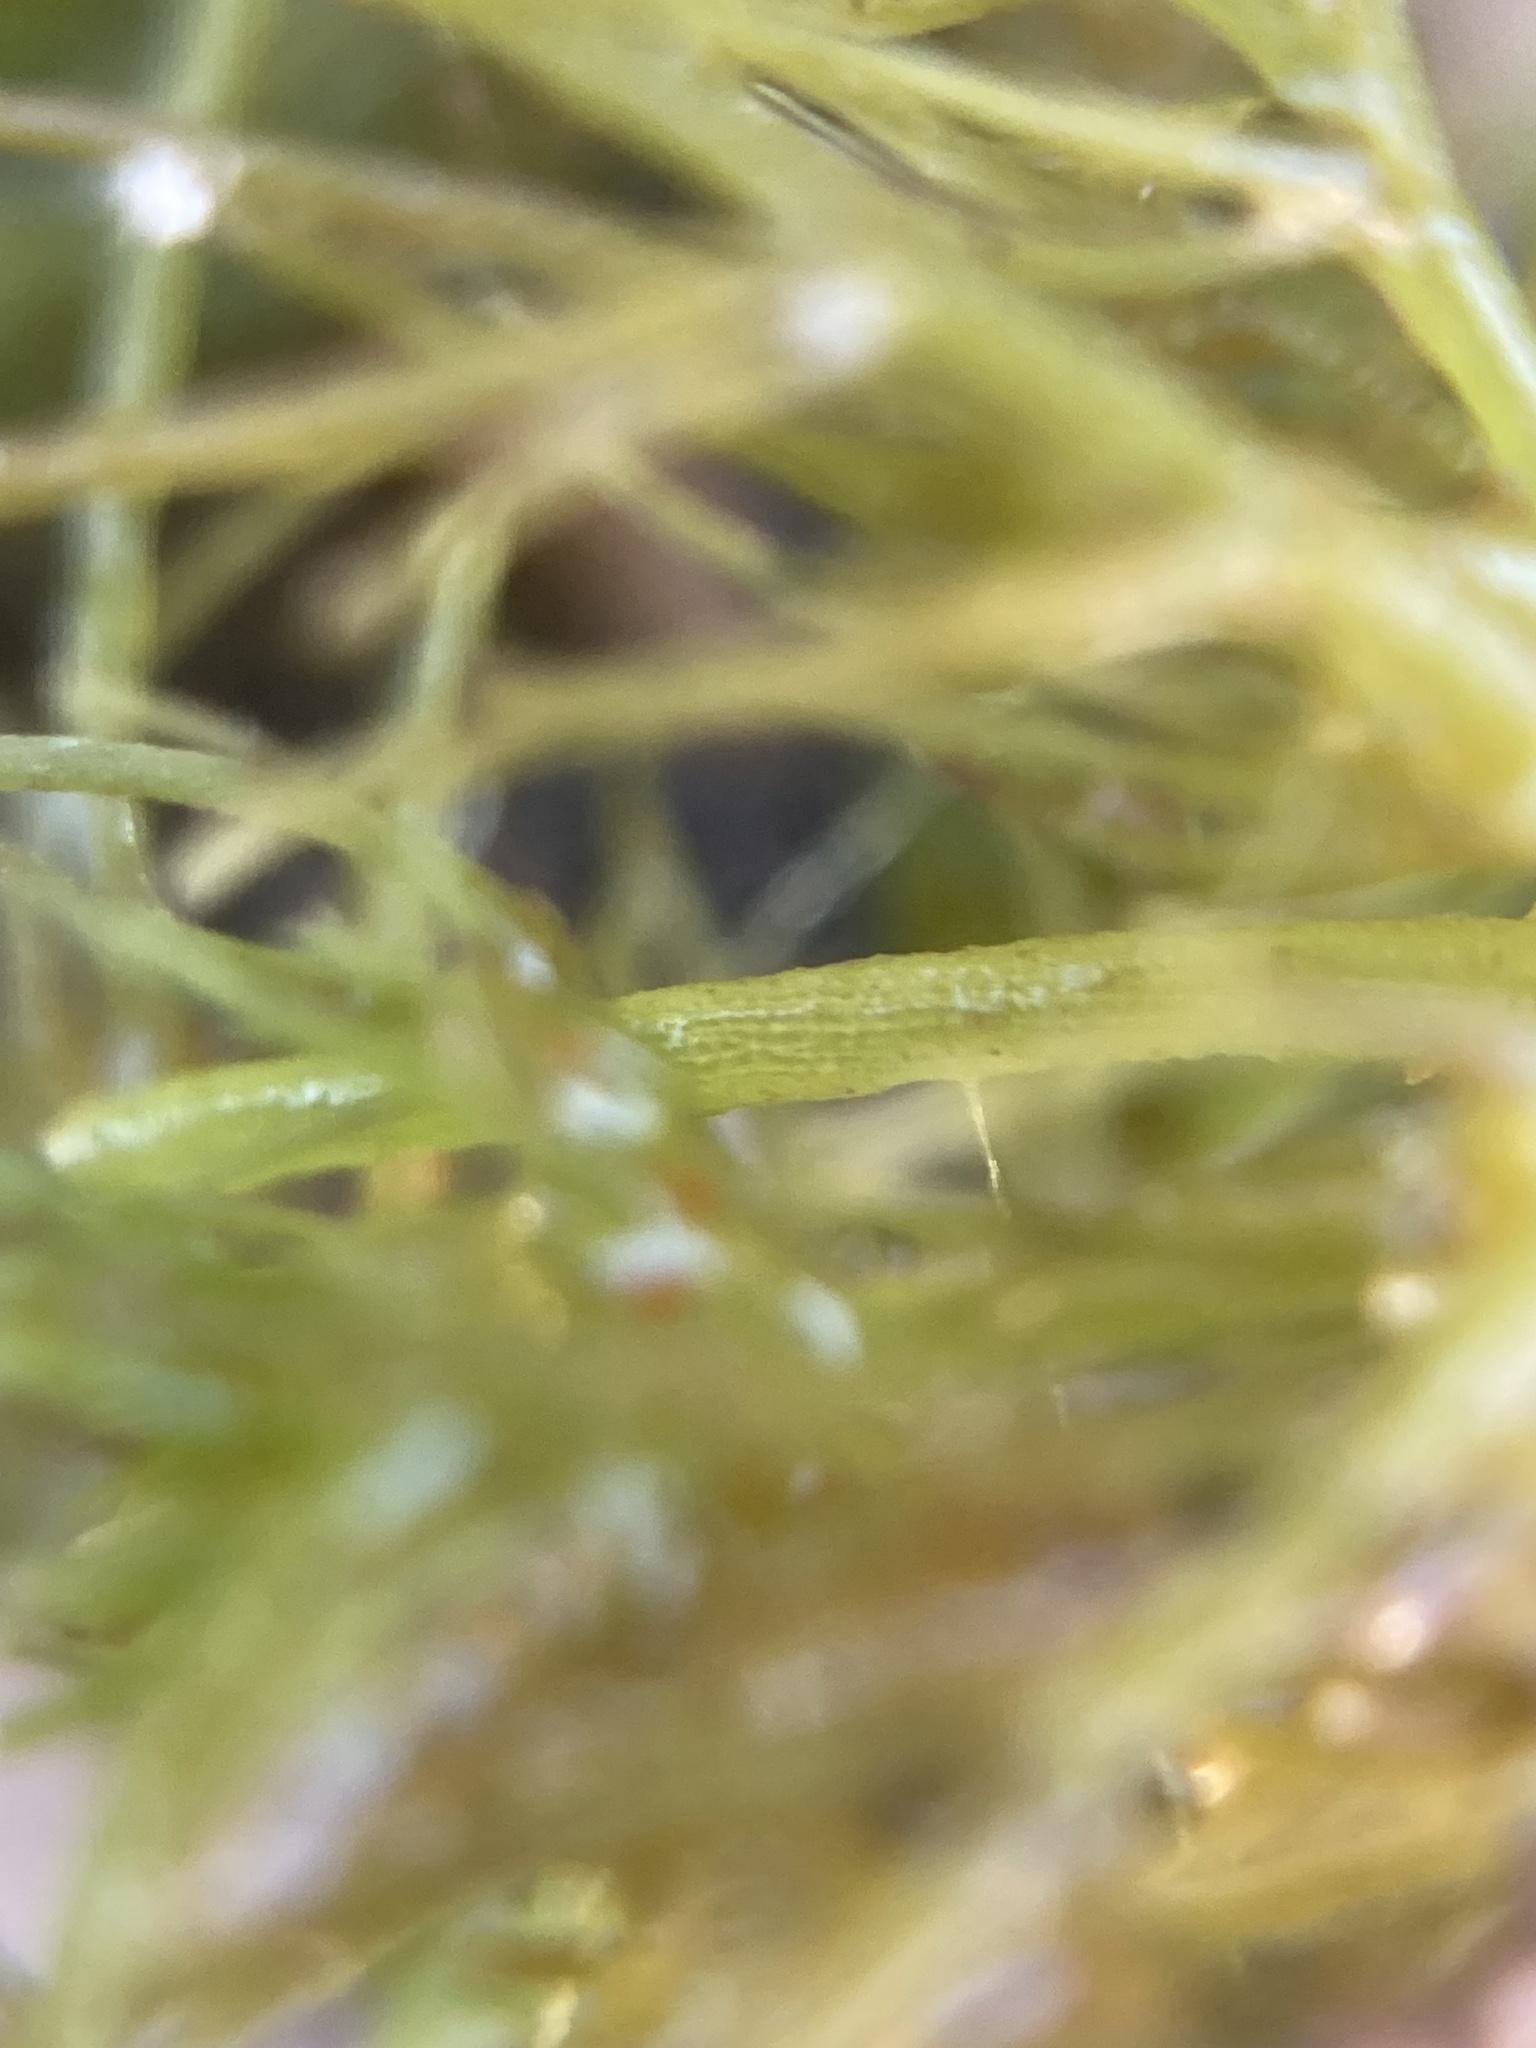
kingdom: Plantae
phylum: Charophyta
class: Charophyceae
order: Charales
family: Characeae
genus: Chara
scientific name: Chara vulgaris
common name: Common stonewort
